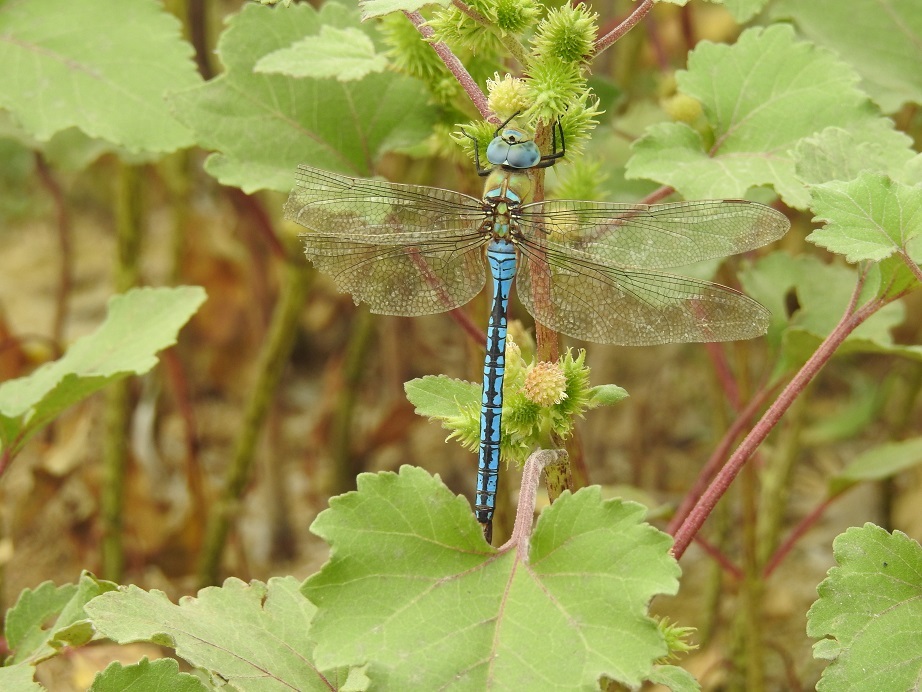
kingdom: Animalia
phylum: Arthropoda
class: Insecta
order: Odonata
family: Aeshnidae
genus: Anax
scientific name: Anax imperator
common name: Emperor dragonfly
